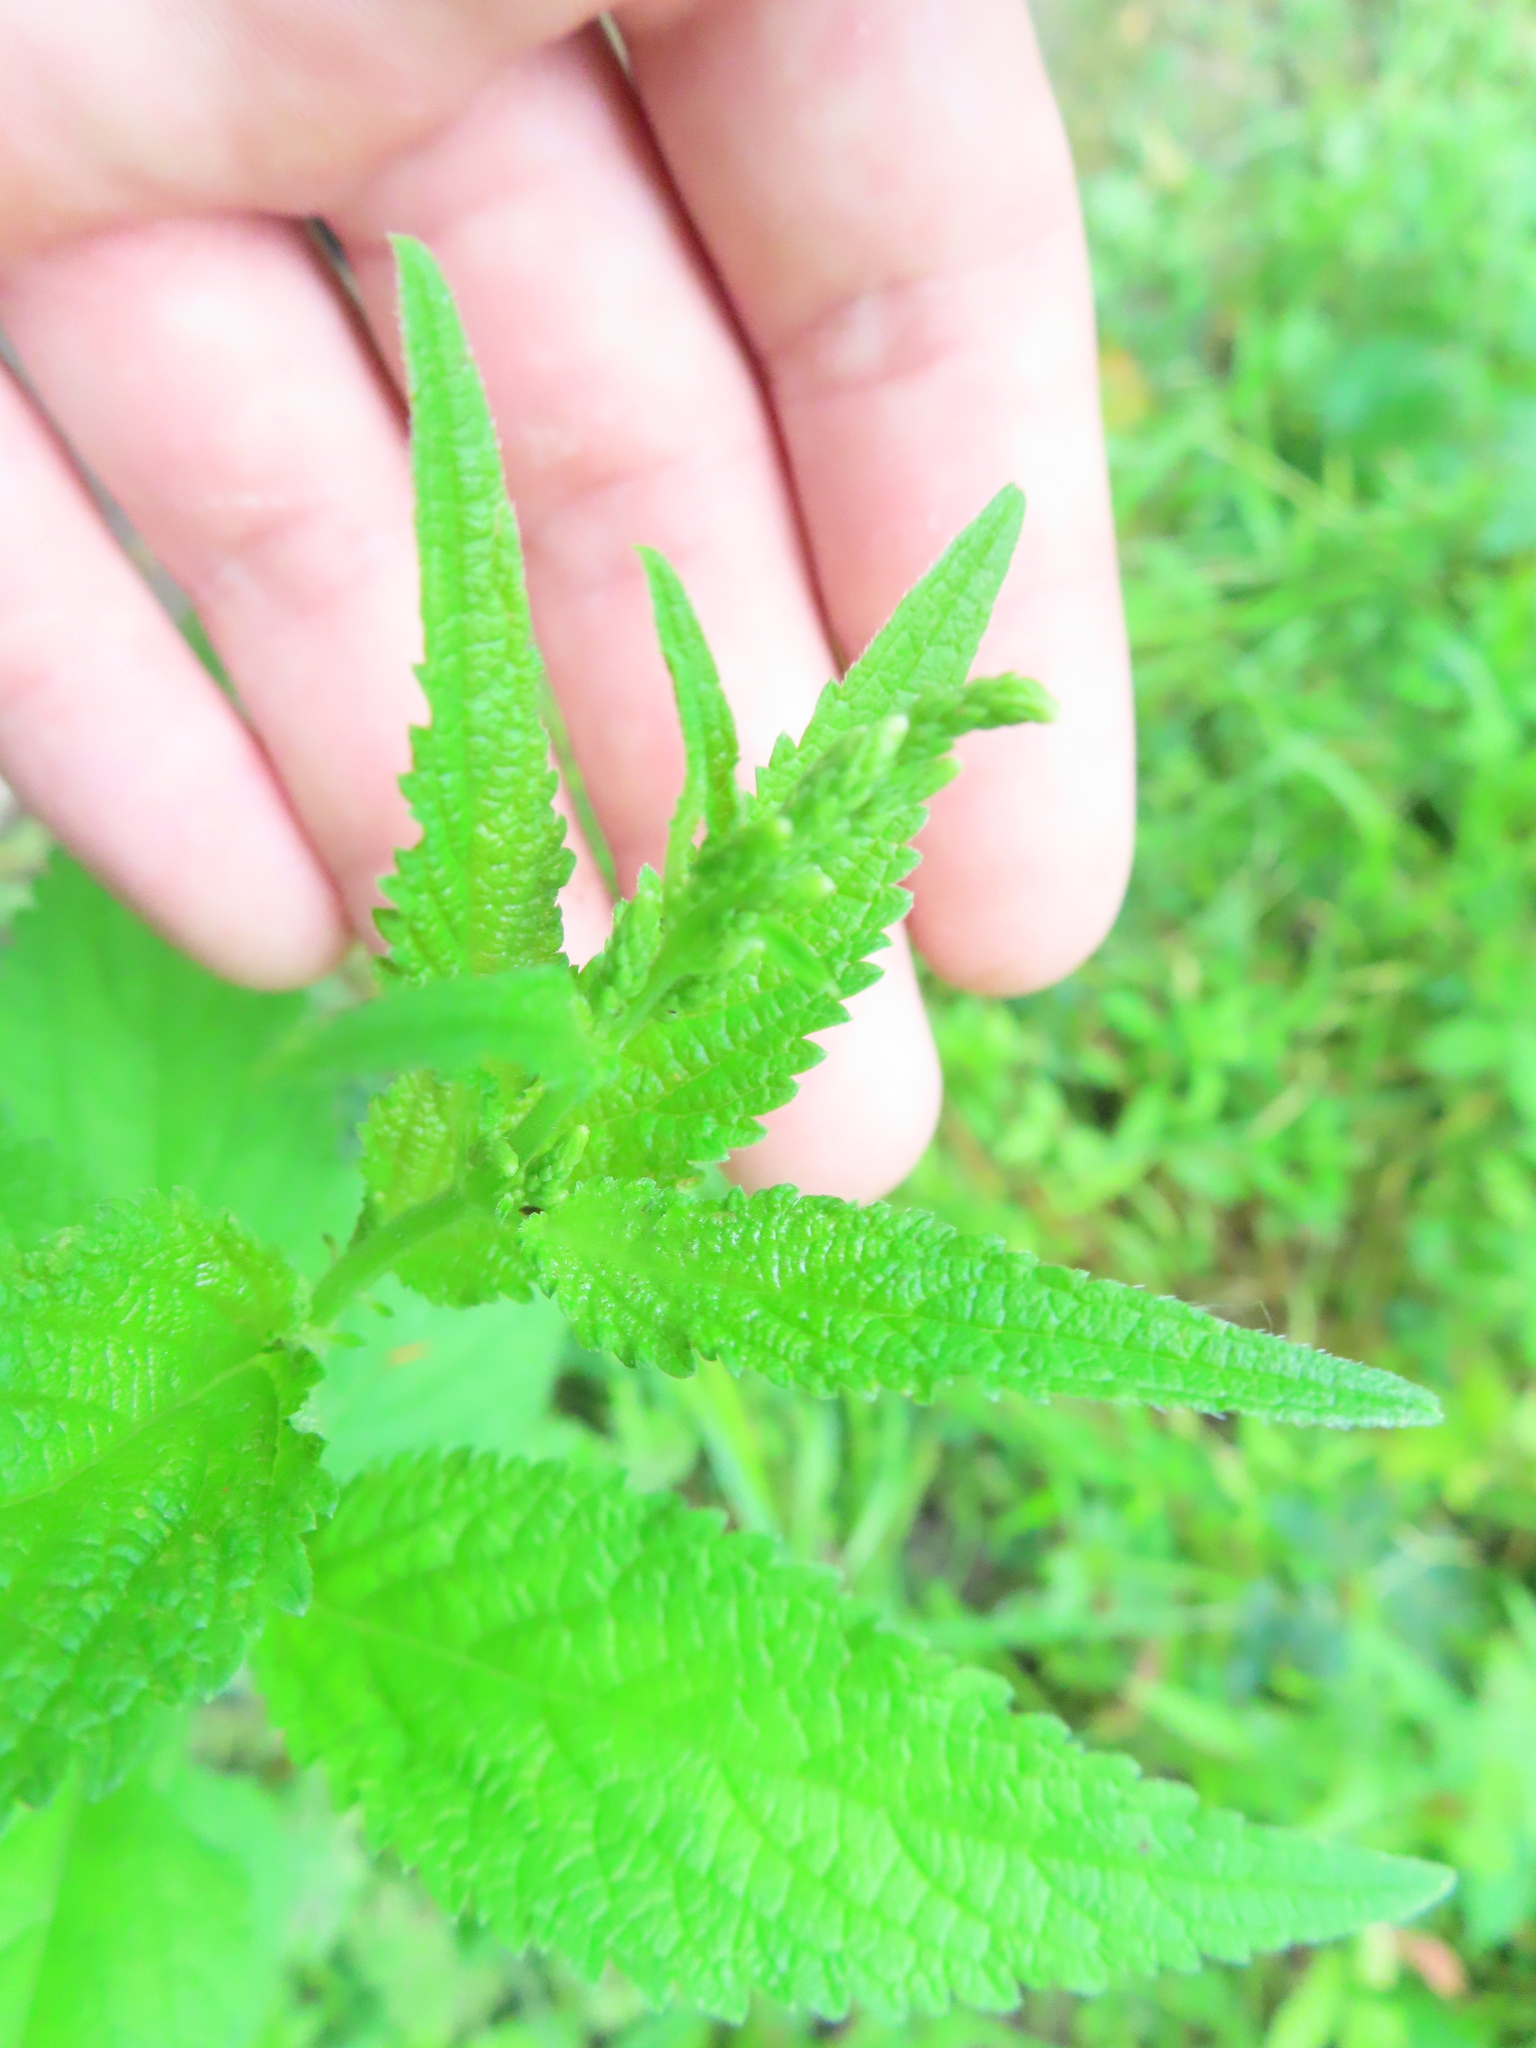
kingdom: Plantae
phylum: Tracheophyta
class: Magnoliopsida
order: Lamiales
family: Verbenaceae
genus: Verbena
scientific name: Verbena urticifolia
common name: Nettle-leaved vervain
